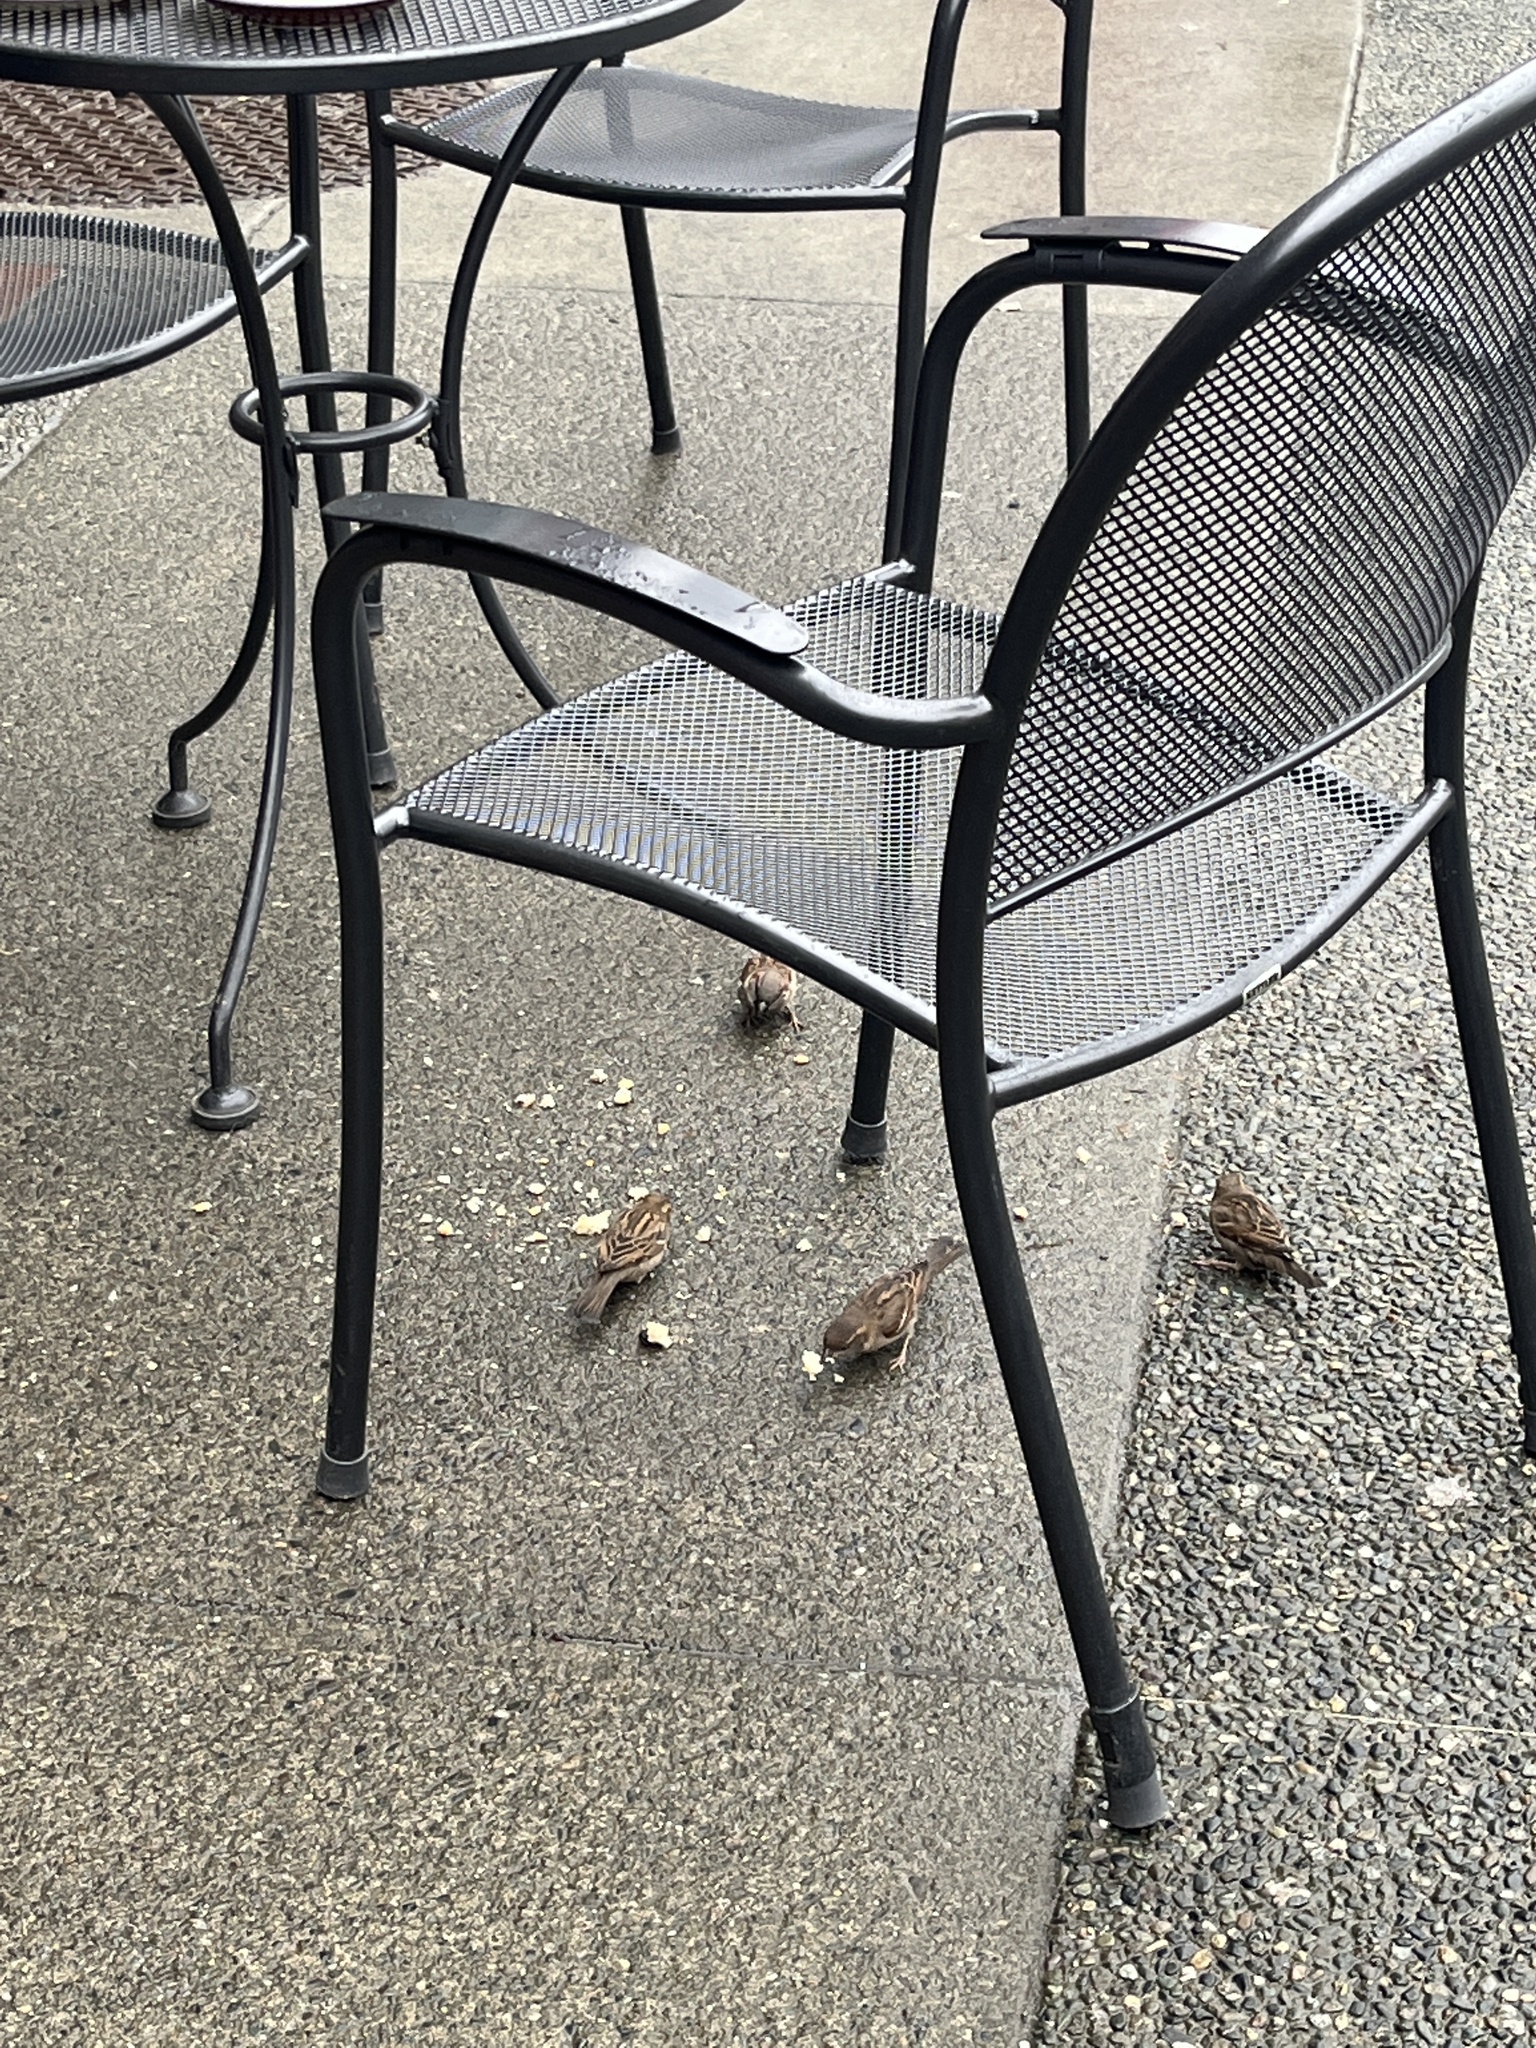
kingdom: Animalia
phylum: Chordata
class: Aves
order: Passeriformes
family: Passeridae
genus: Passer
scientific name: Passer domesticus
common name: House sparrow
